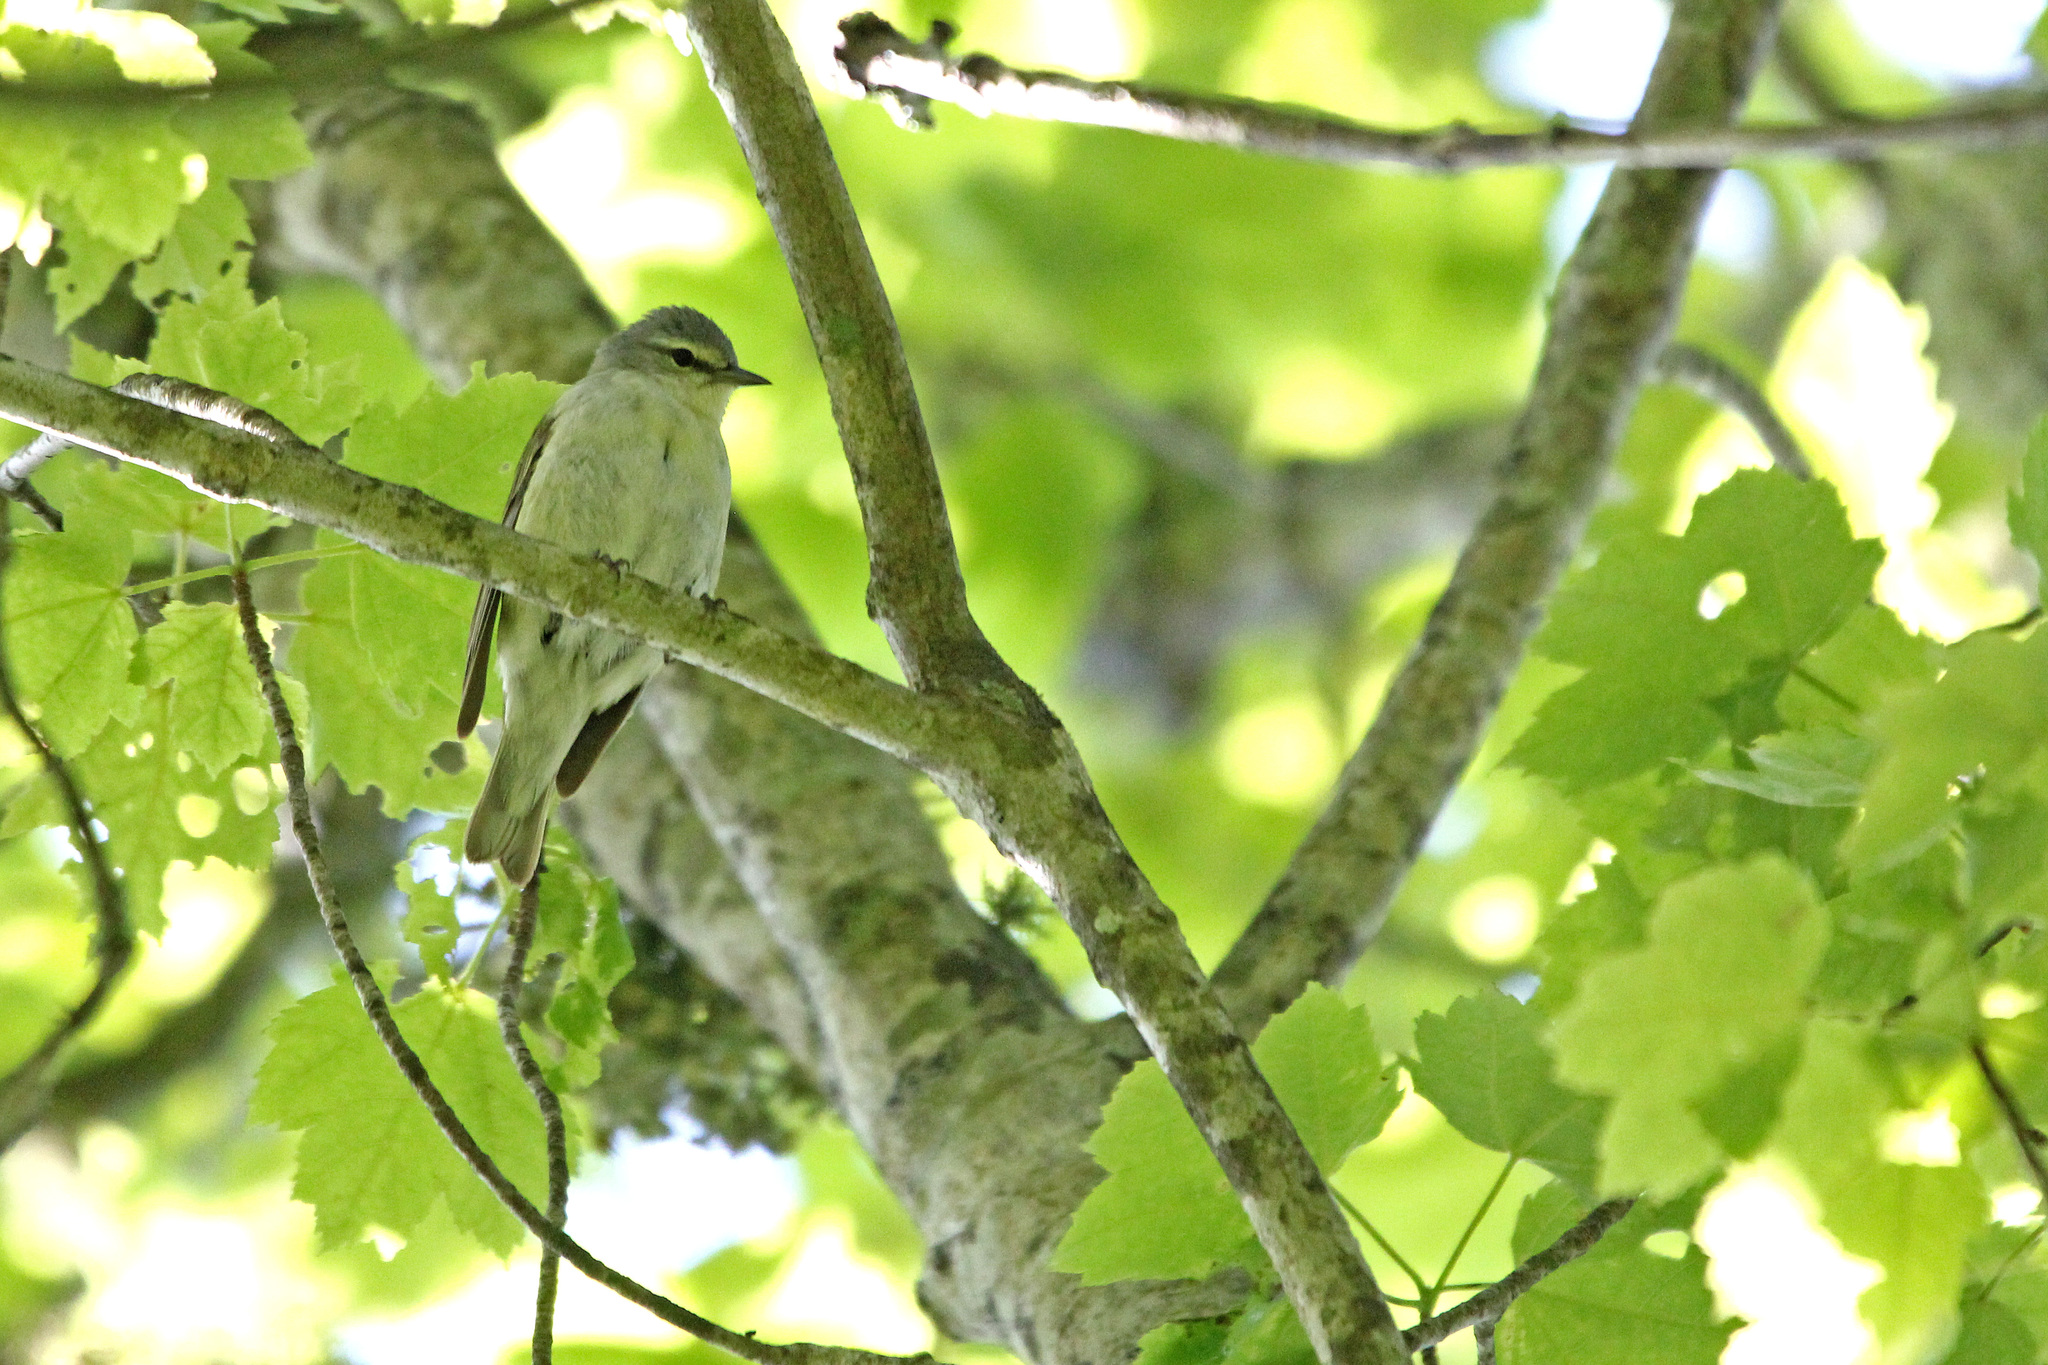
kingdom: Animalia
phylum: Chordata
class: Aves
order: Passeriformes
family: Parulidae
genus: Leiothlypis
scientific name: Leiothlypis peregrina
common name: Tennessee warbler
